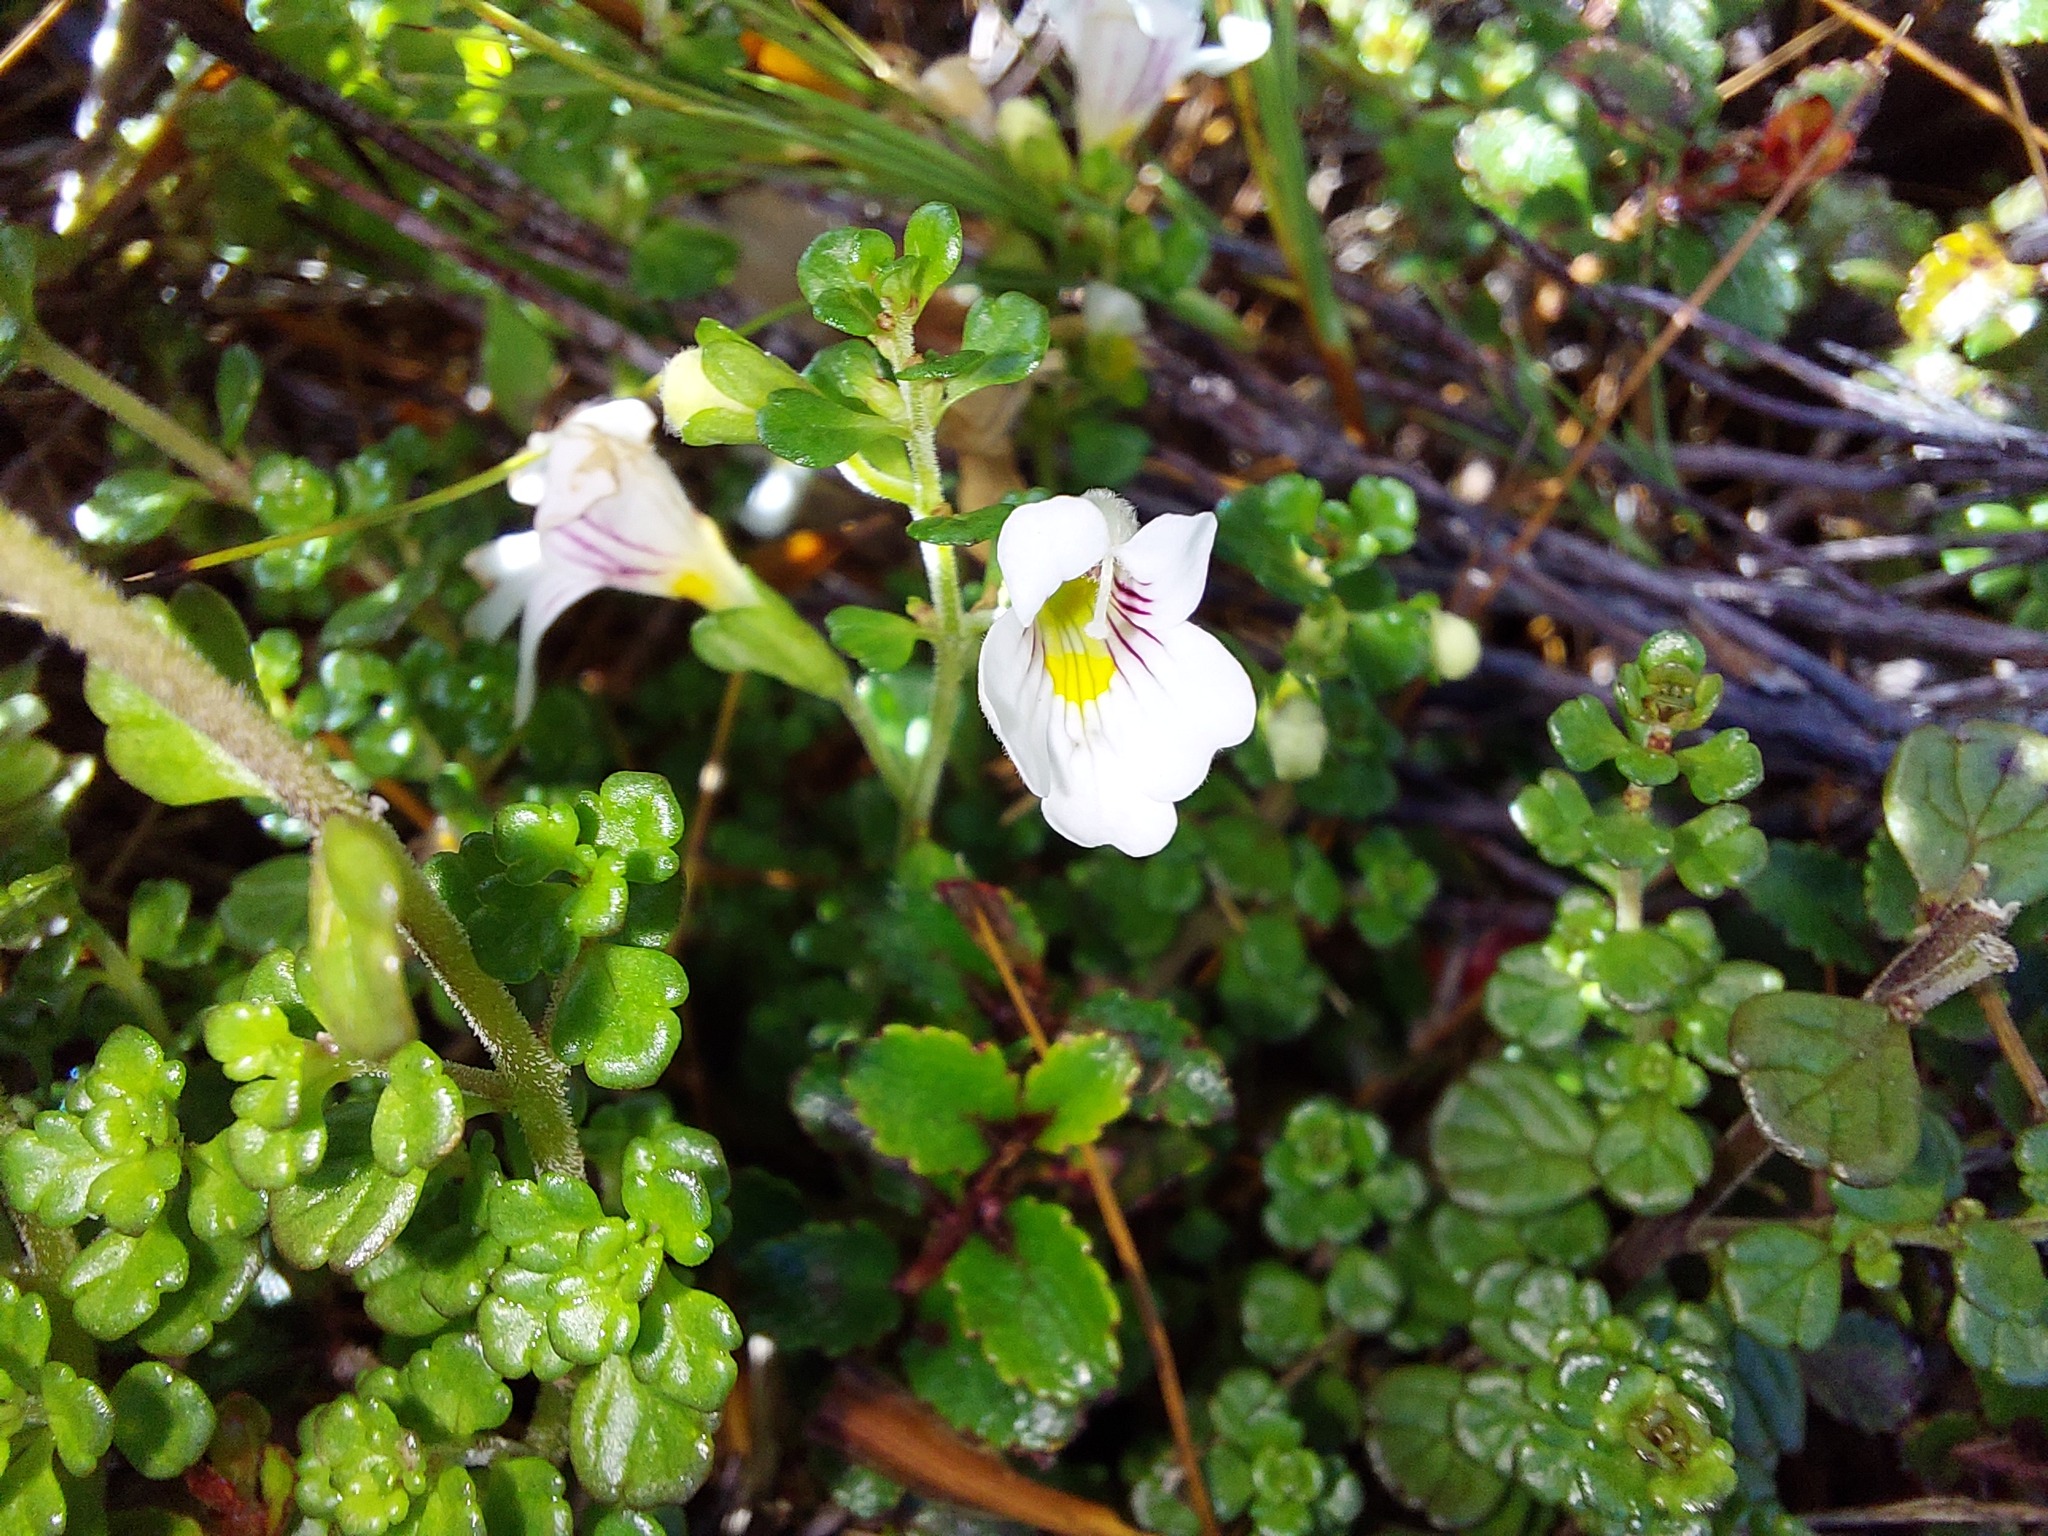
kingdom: Plantae
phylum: Tracheophyta
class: Magnoliopsida
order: Lamiales
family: Orobanchaceae
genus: Euphrasia
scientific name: Euphrasia cuneata
